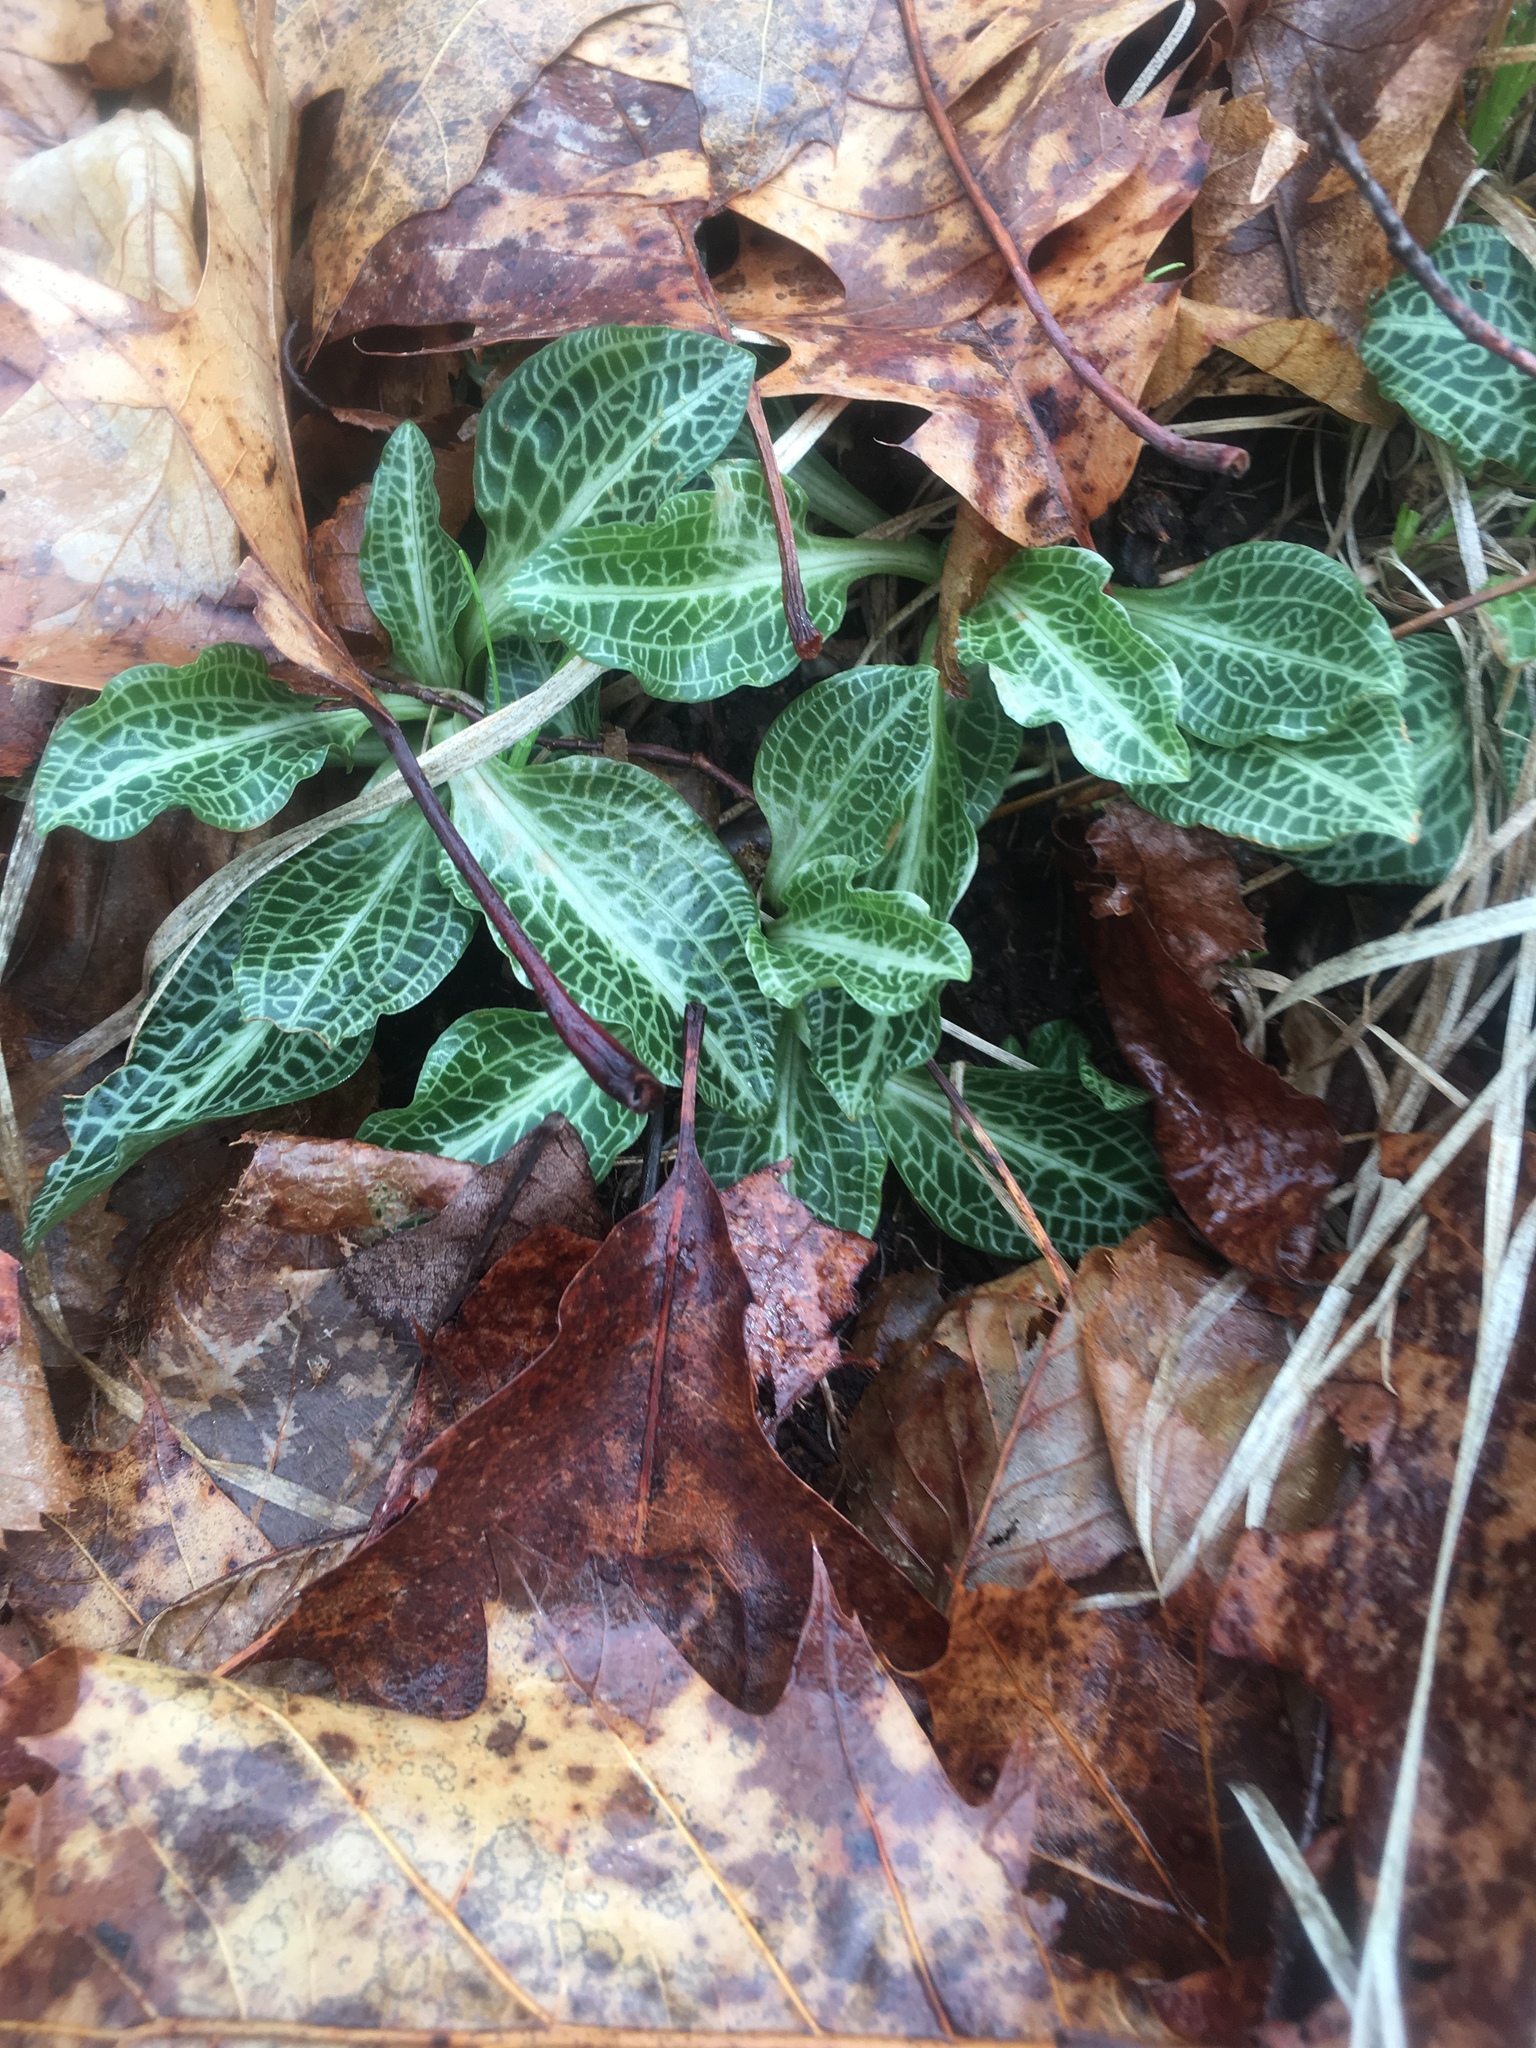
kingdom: Plantae
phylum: Tracheophyta
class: Liliopsida
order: Asparagales
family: Orchidaceae
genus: Goodyera
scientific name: Goodyera pubescens
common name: Downy rattlesnake-plantain
